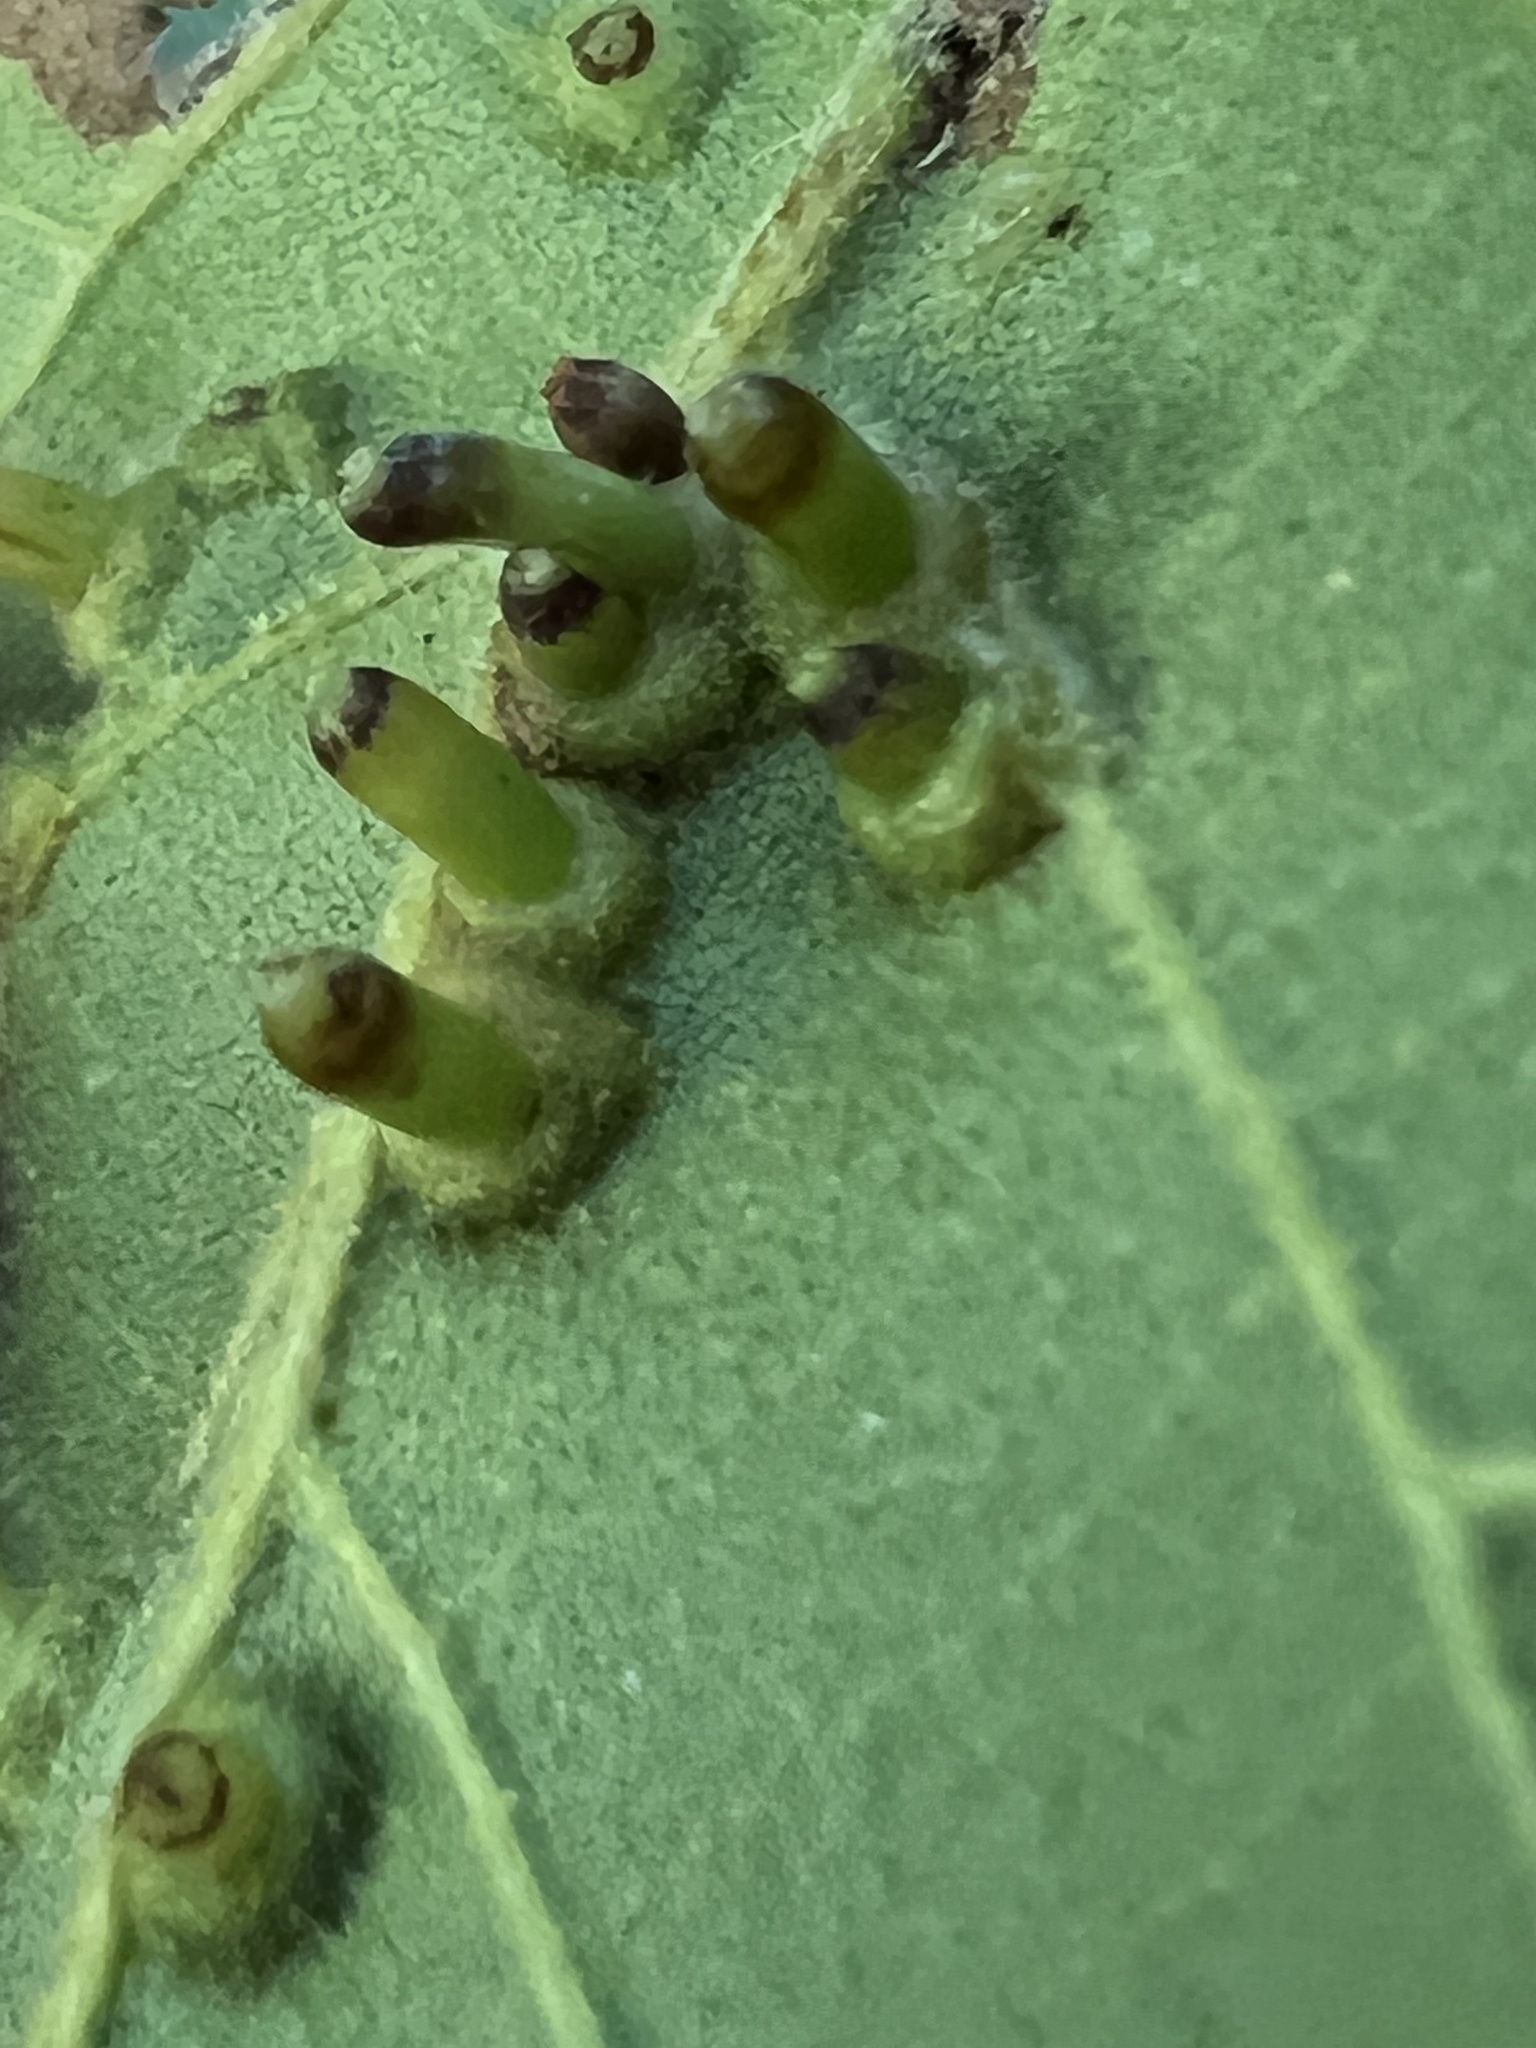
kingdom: Animalia
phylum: Arthropoda
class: Insecta
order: Diptera
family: Cecidomyiidae
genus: Caryomyia
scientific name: Caryomyia tubicola
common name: Hickory bullet gall midge
